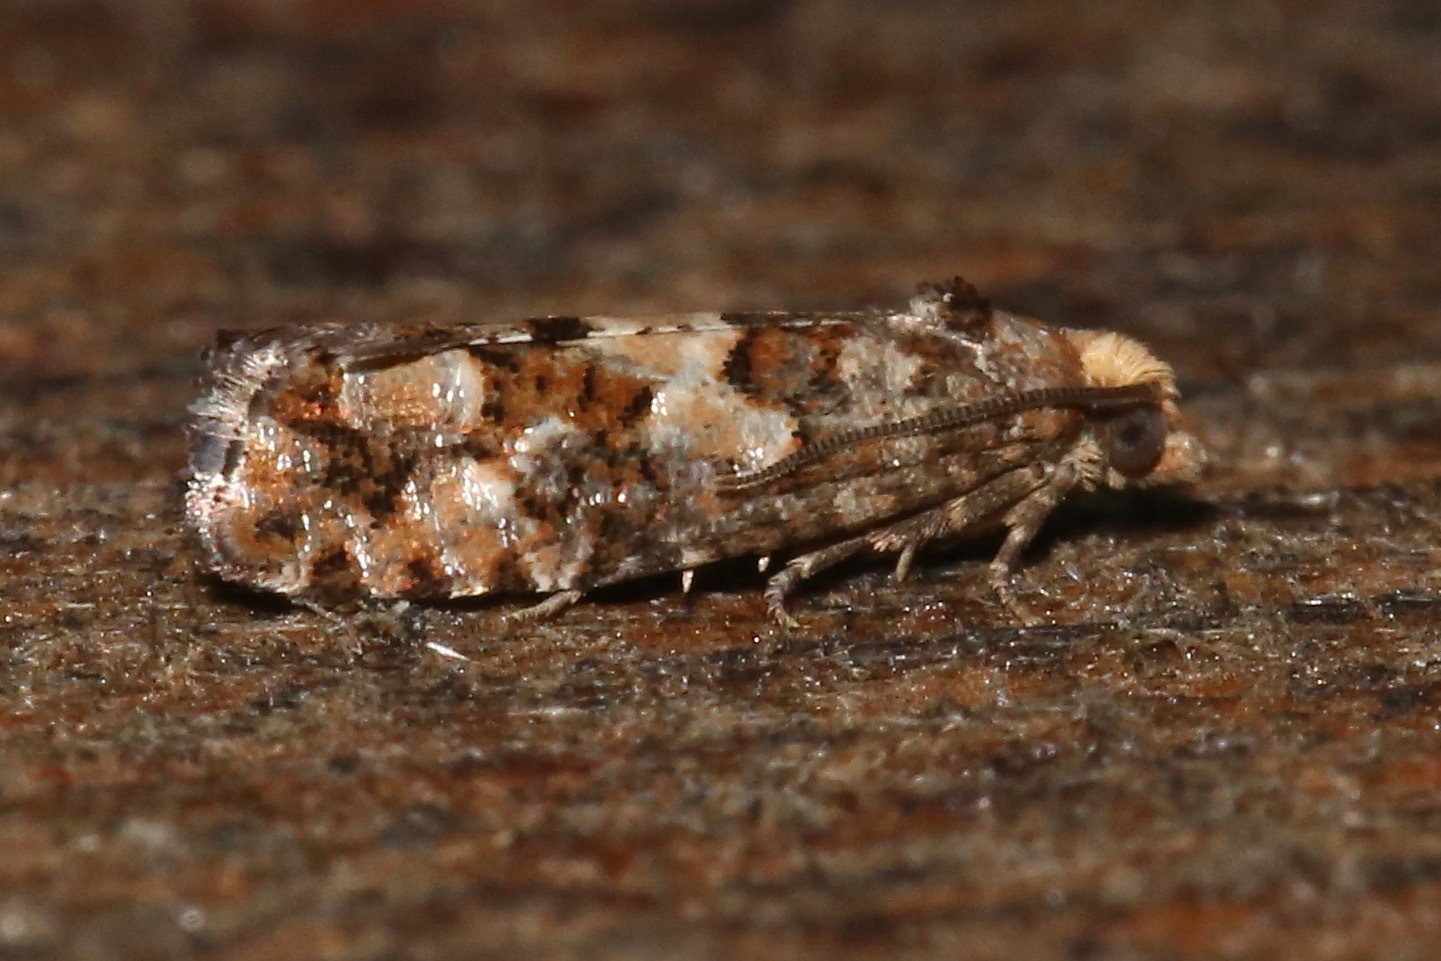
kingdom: Animalia
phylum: Arthropoda
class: Insecta
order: Lepidoptera
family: Tortricidae
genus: Eucopina
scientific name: Eucopina tocullionana
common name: White pinecone borer moth
